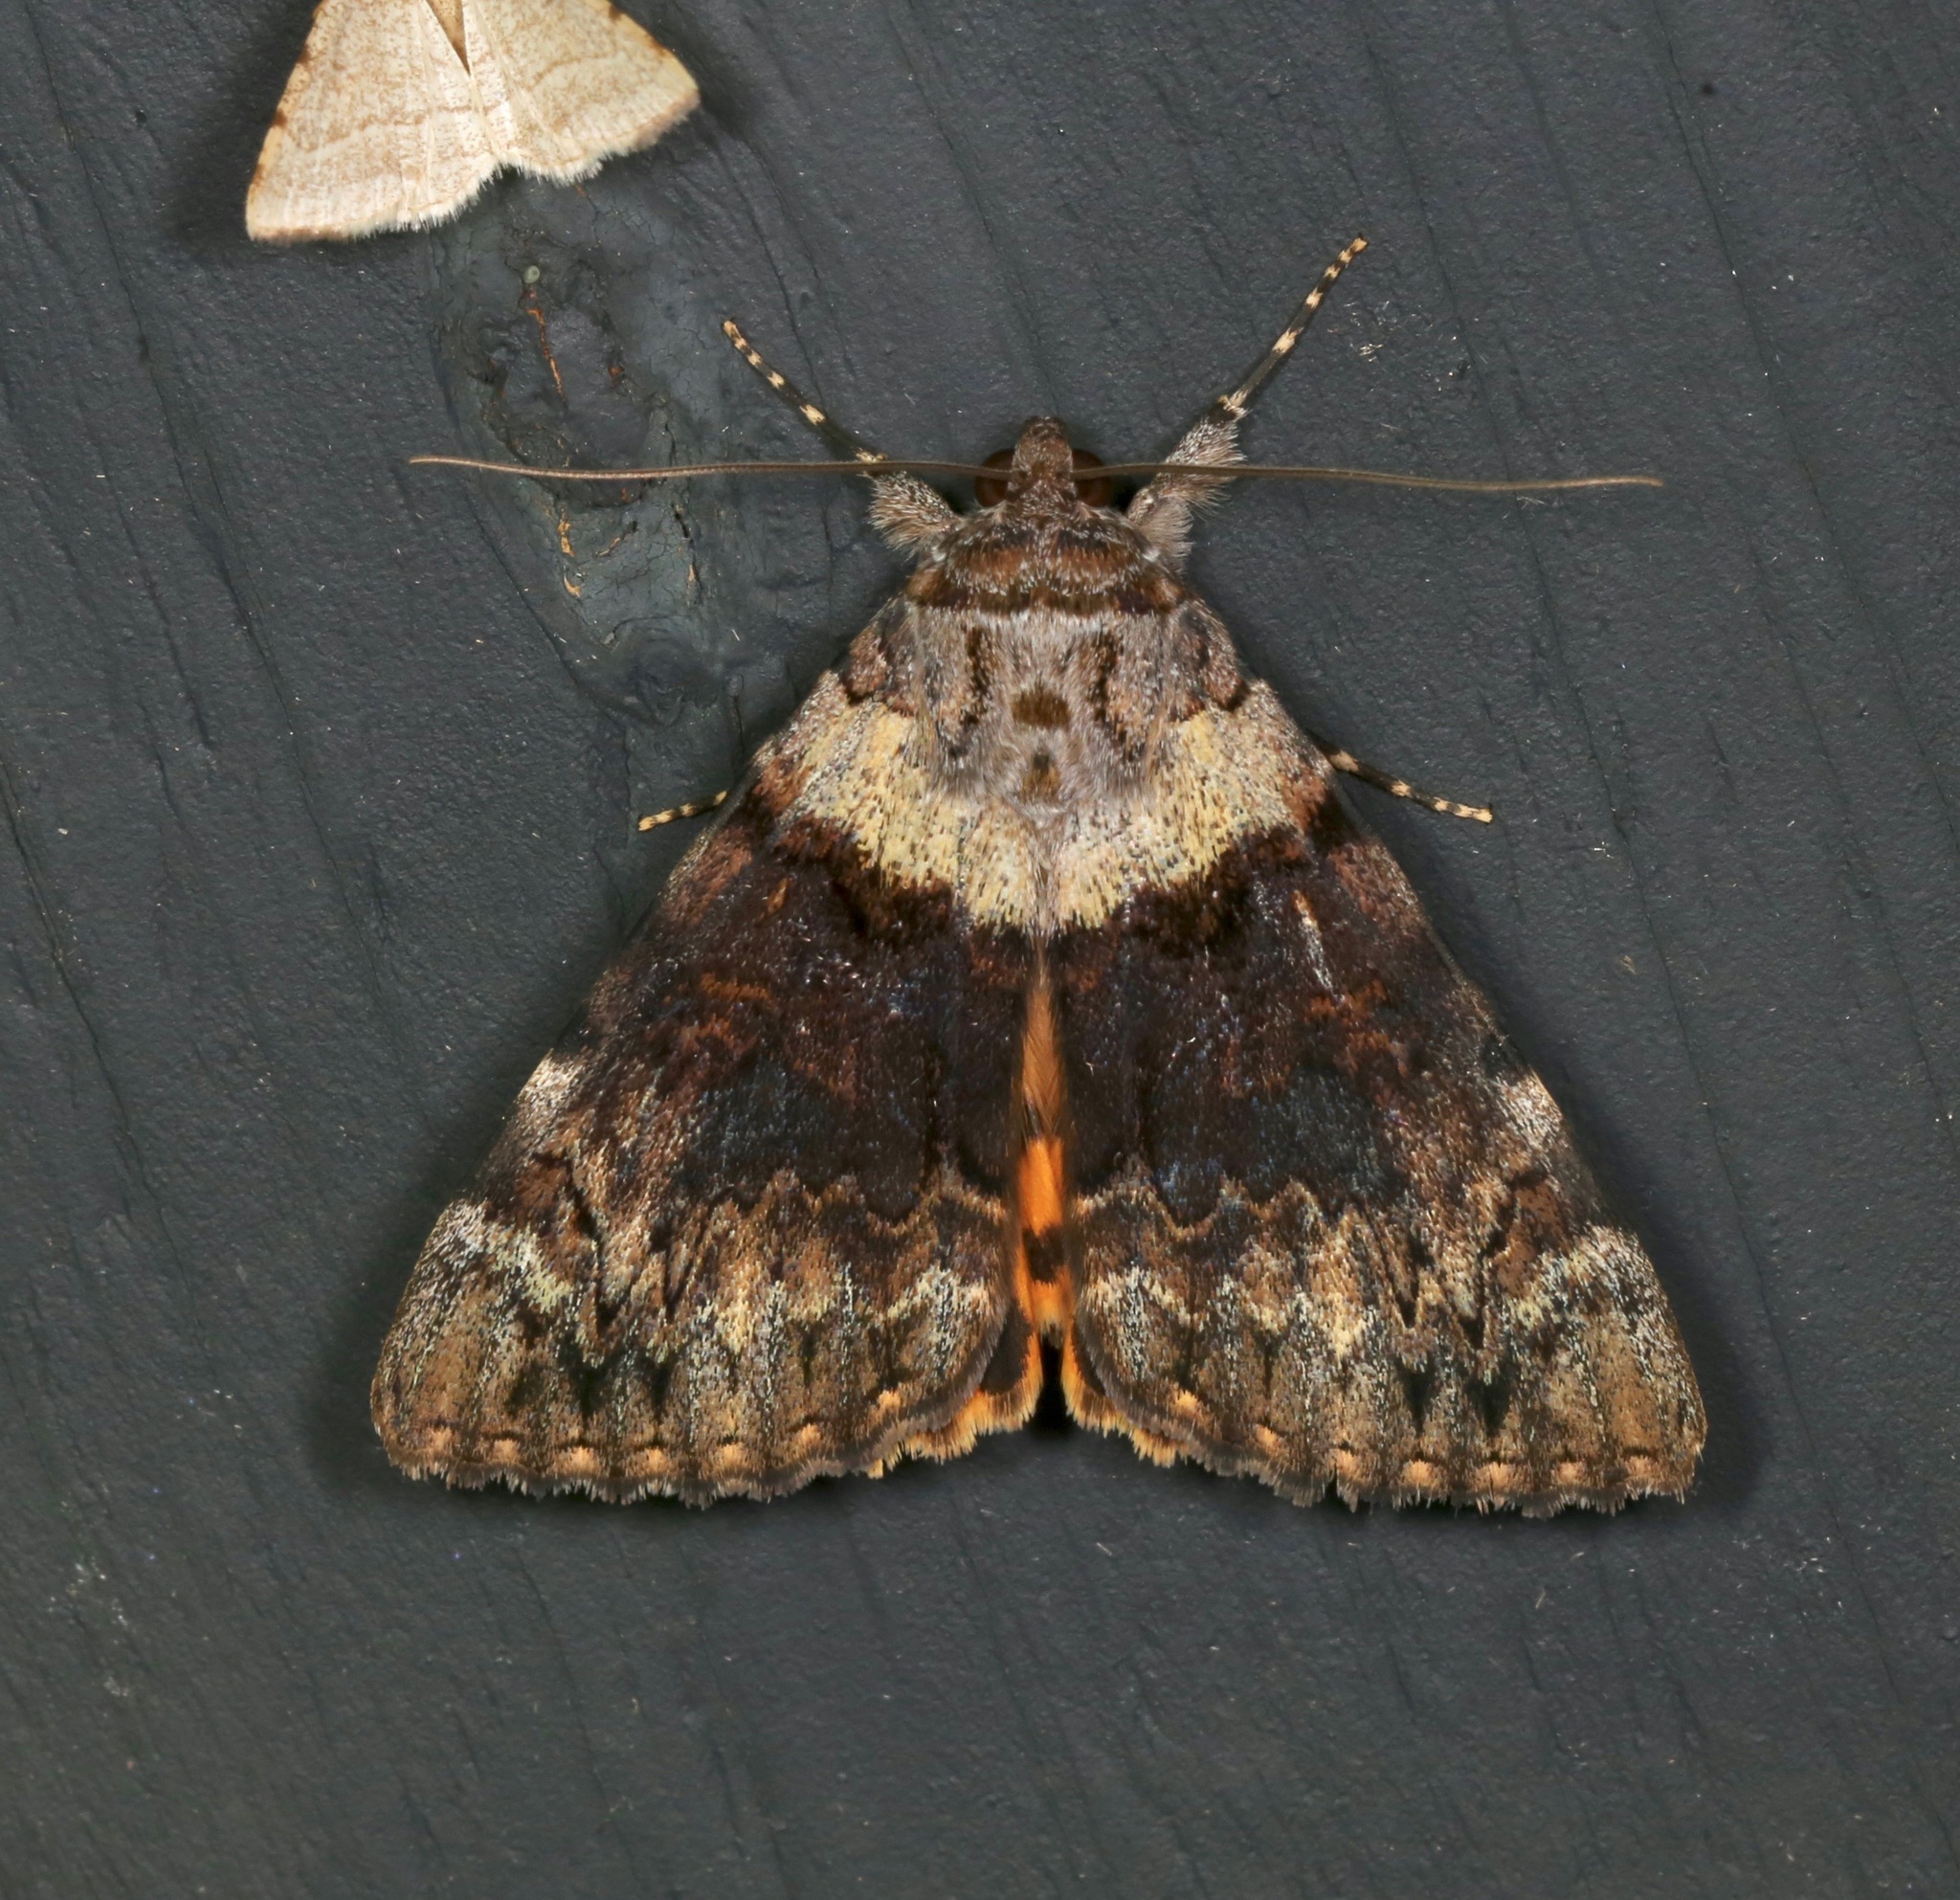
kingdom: Animalia
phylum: Arthropoda
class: Insecta
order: Lepidoptera
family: Erebidae
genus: Catocala
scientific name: Catocala desdemona
